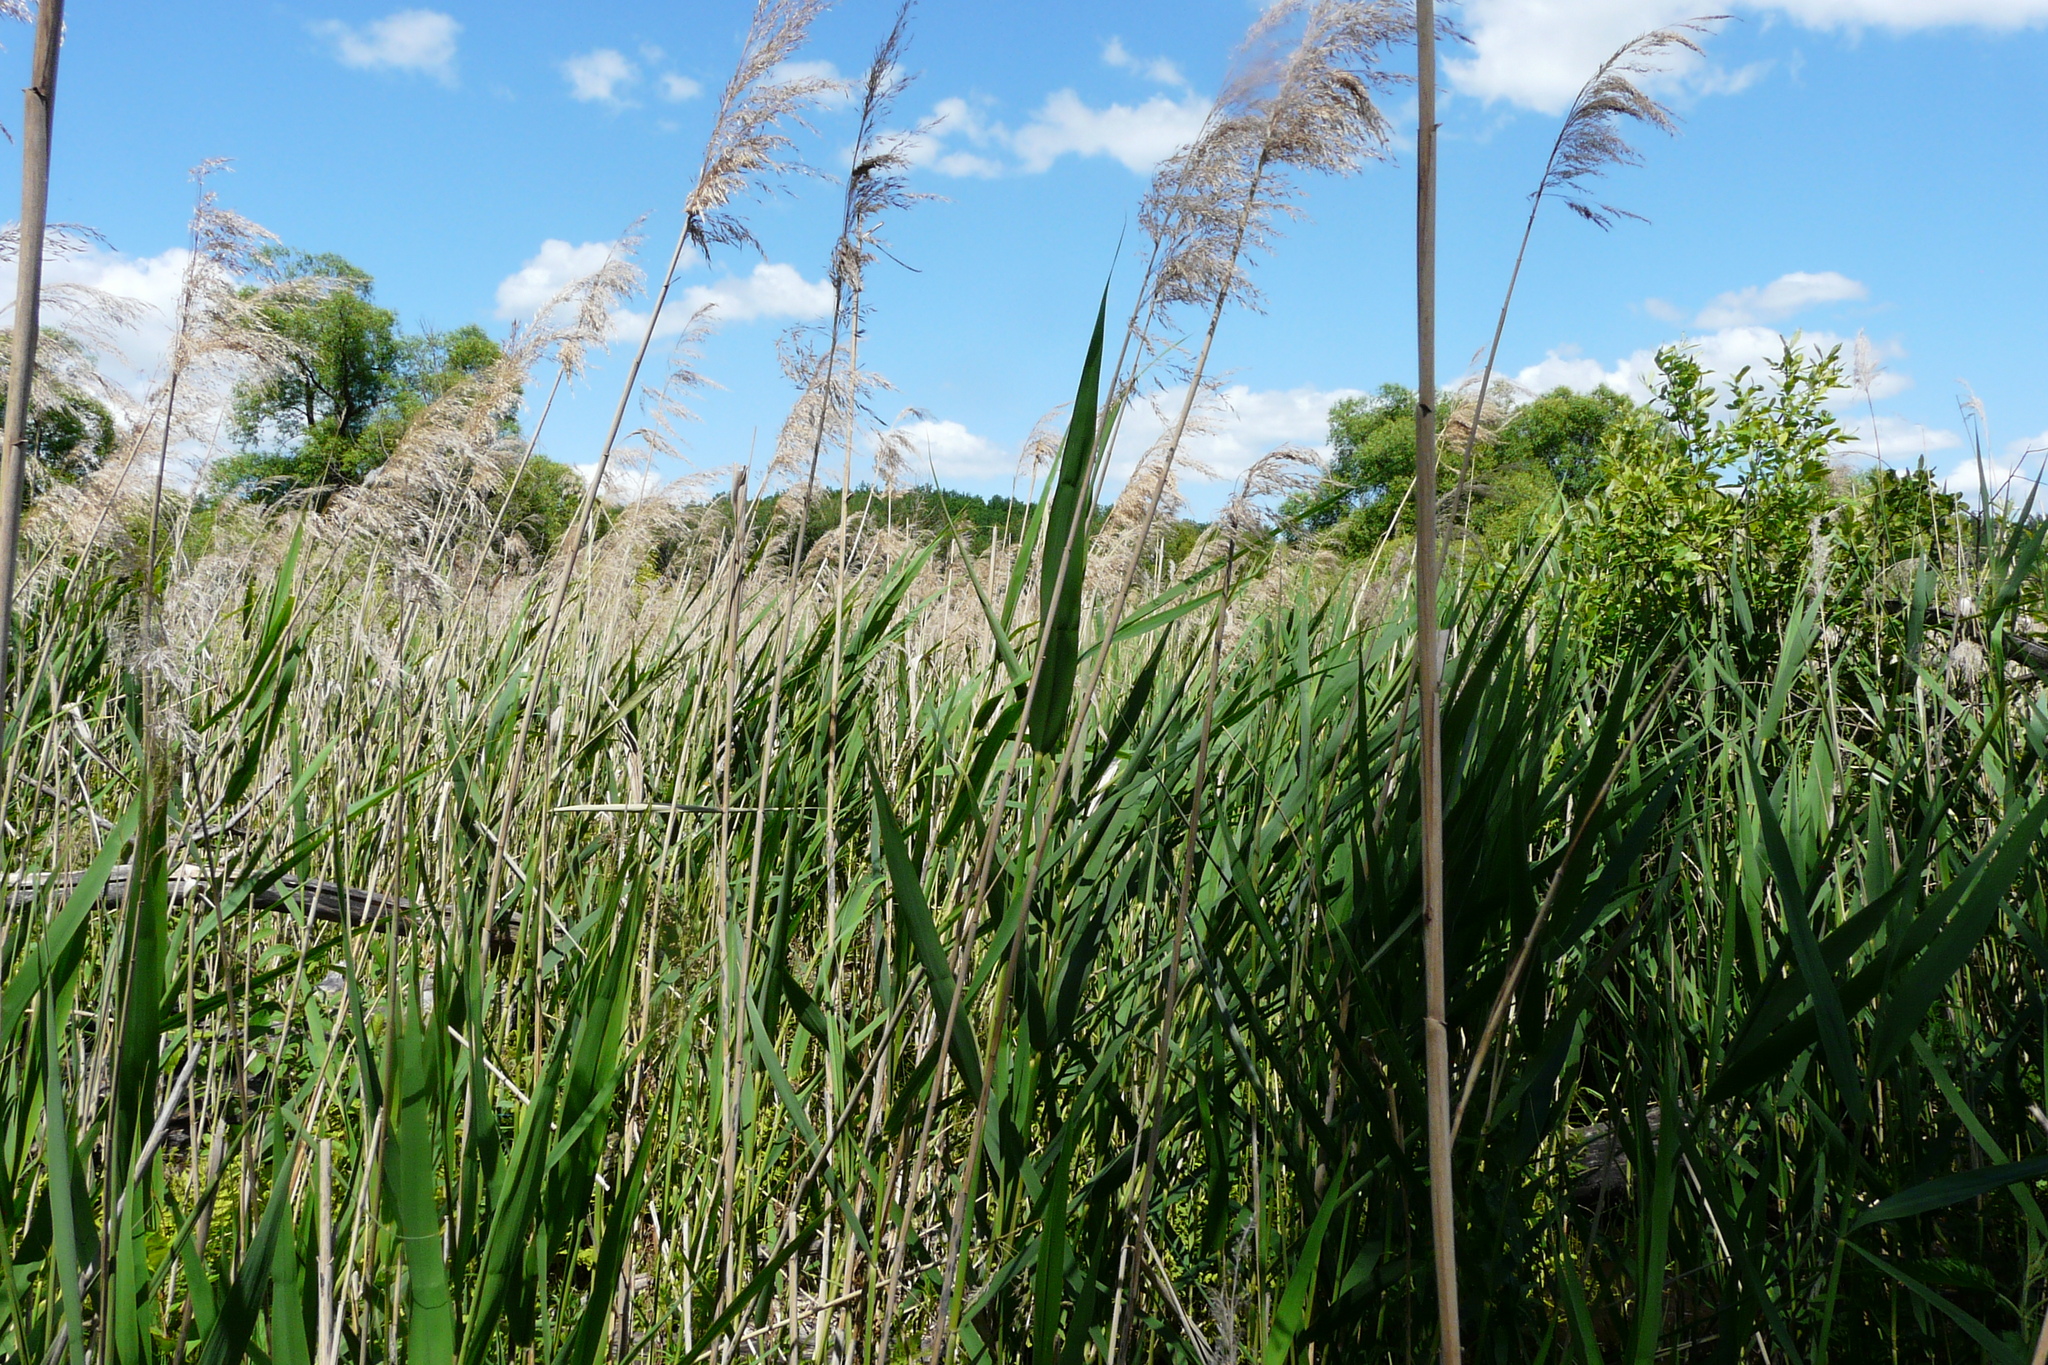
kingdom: Plantae
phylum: Tracheophyta
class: Liliopsida
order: Poales
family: Poaceae
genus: Phragmites
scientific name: Phragmites australis
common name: Common reed
